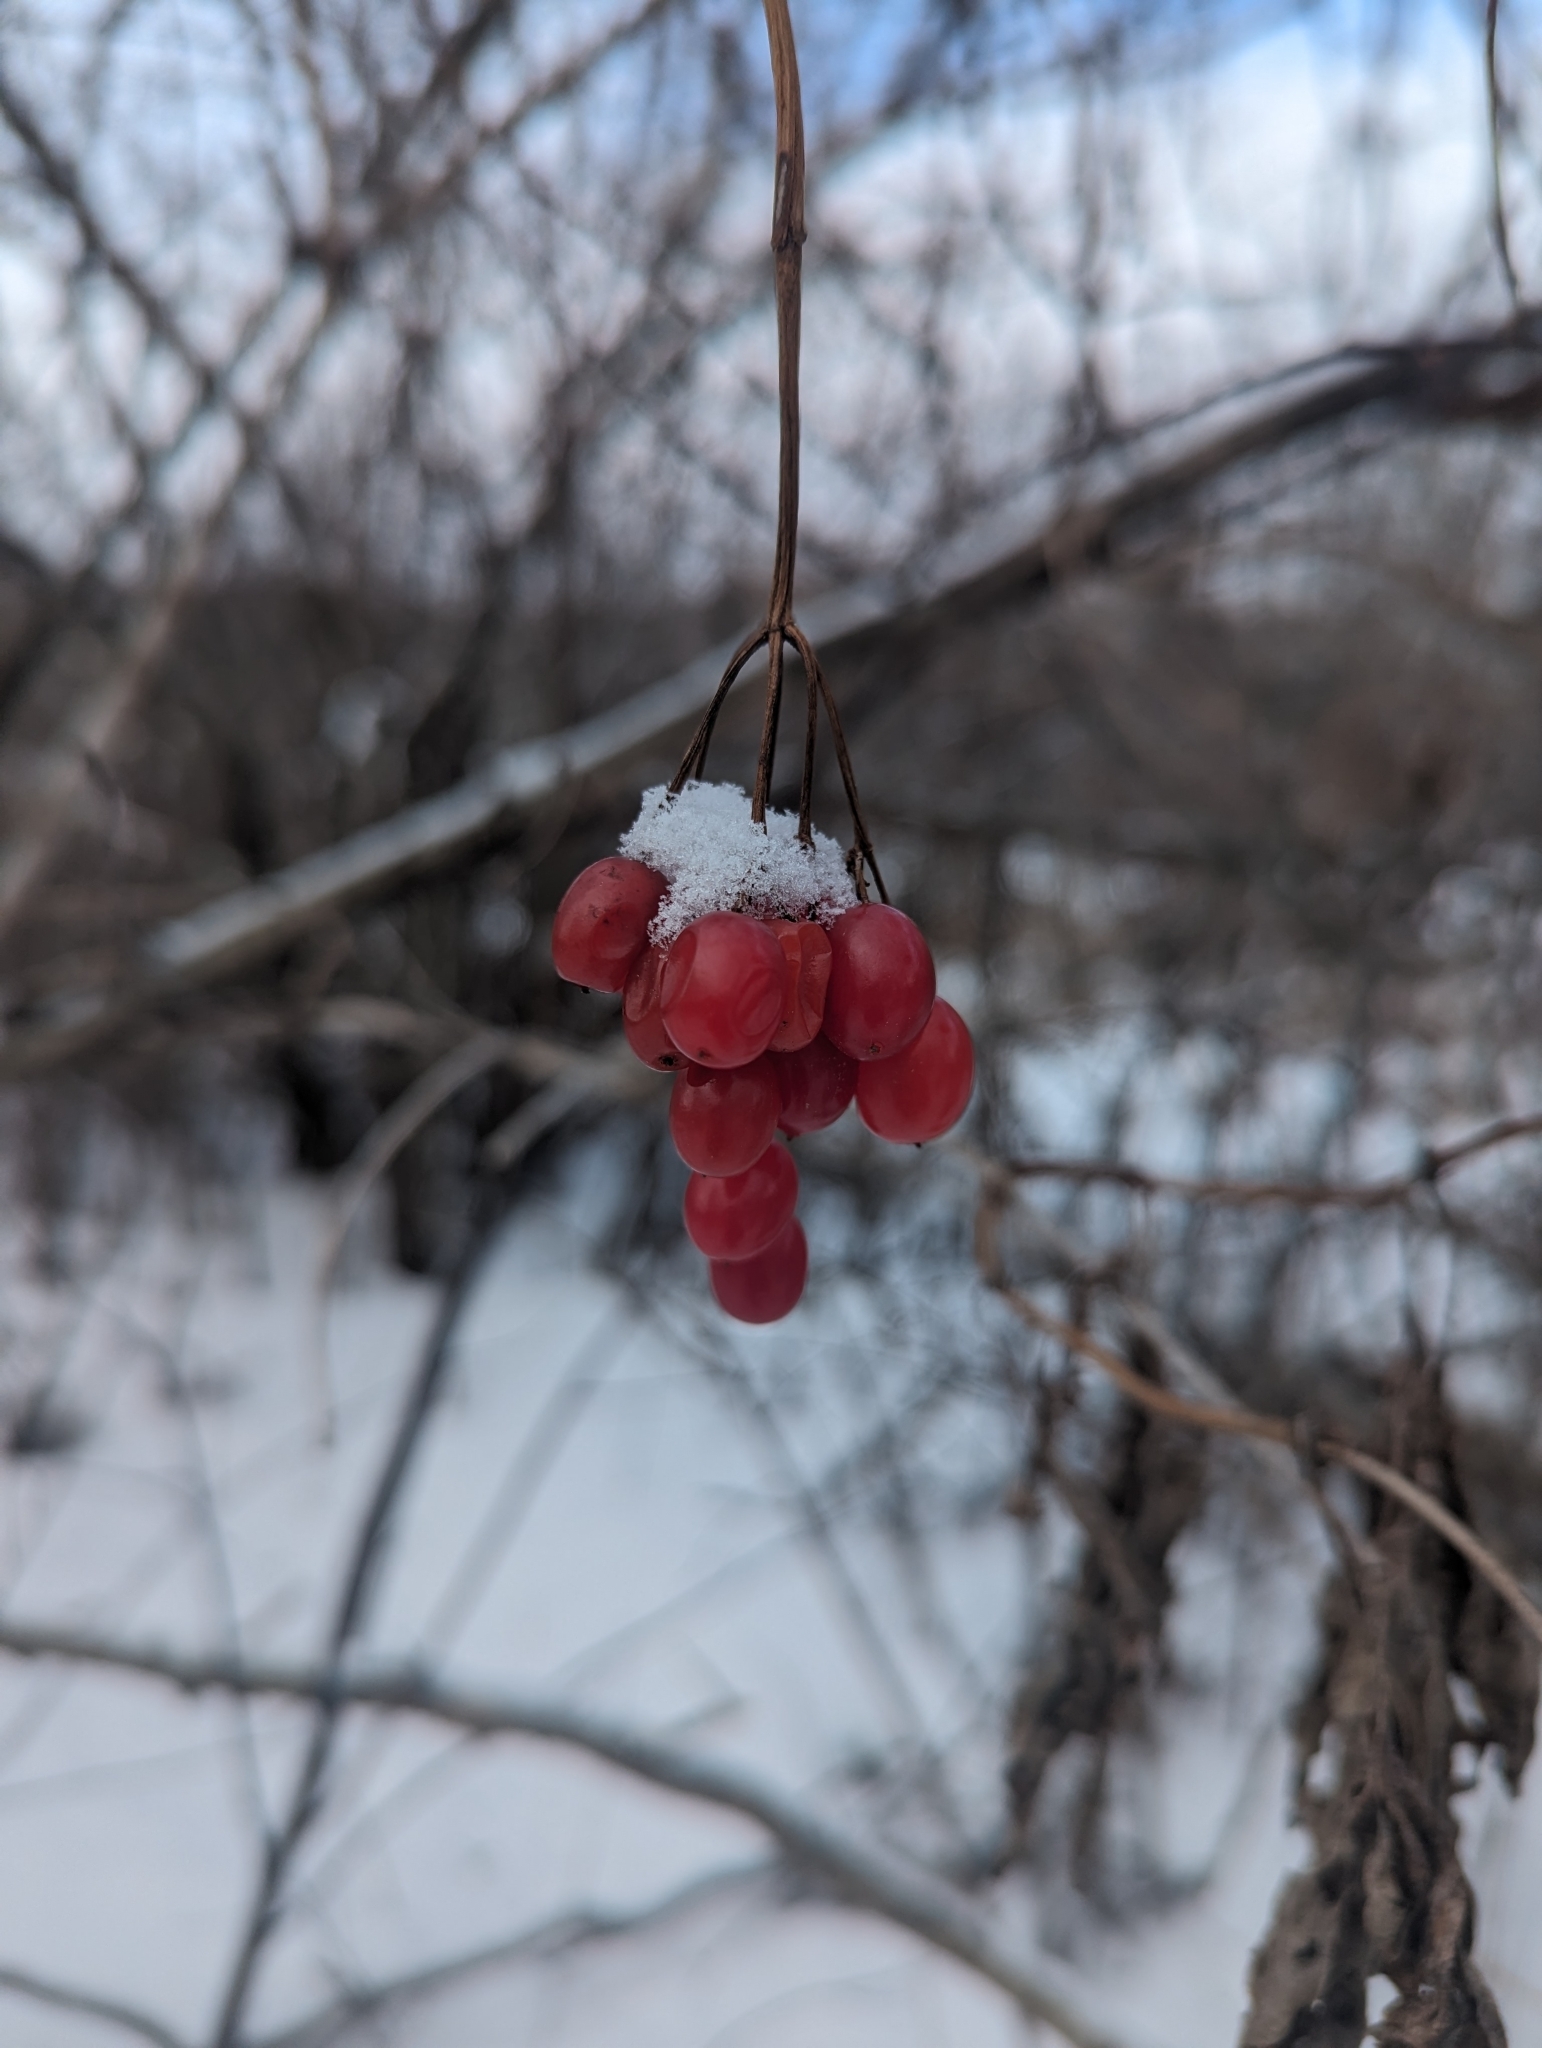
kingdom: Plantae
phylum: Tracheophyta
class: Magnoliopsida
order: Dipsacales
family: Viburnaceae
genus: Viburnum
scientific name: Viburnum opulus
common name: Guelder-rose
